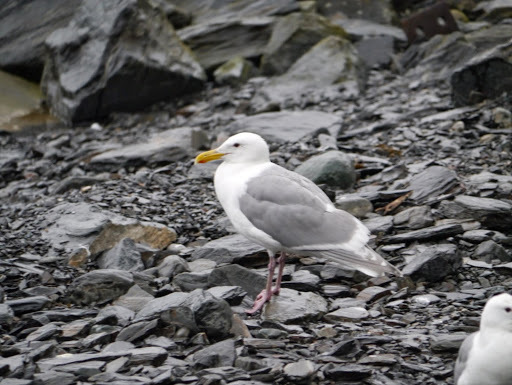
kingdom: Animalia
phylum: Chordata
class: Aves
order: Charadriiformes
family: Laridae
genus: Larus
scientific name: Larus glaucescens
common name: Glaucous-winged gull
